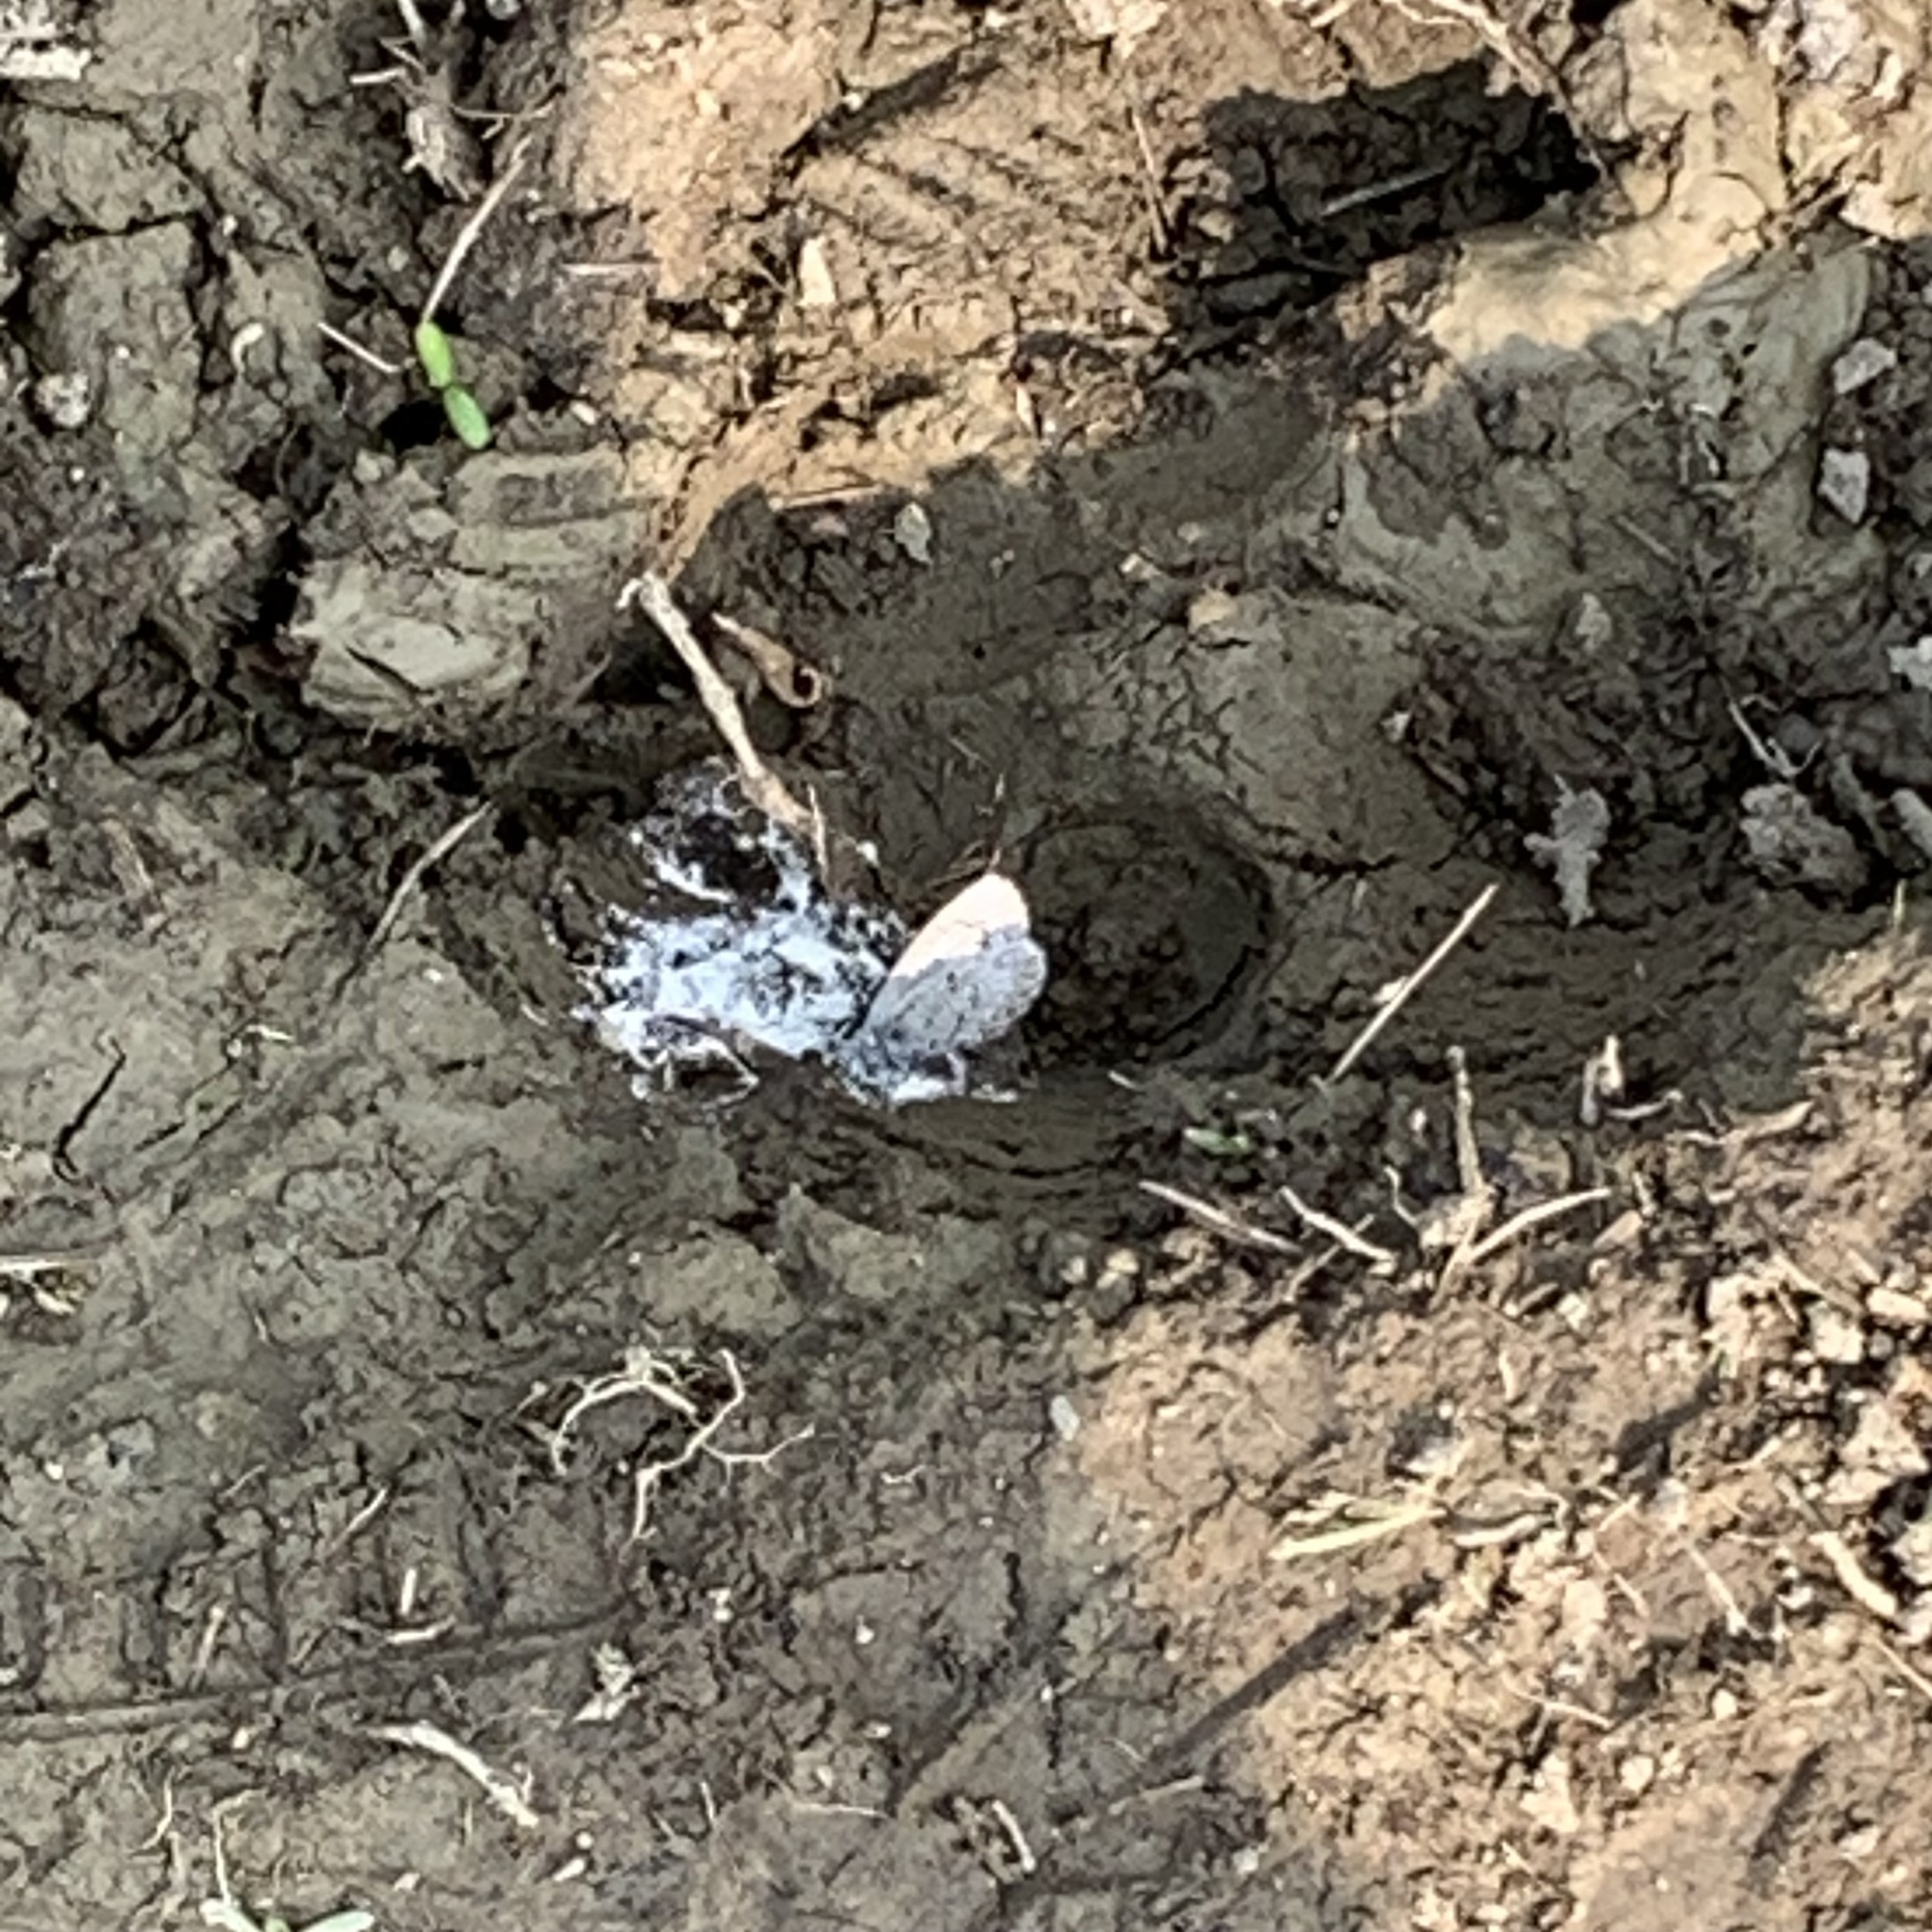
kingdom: Animalia
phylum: Arthropoda
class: Insecta
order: Lepidoptera
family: Lycaenidae
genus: Celastrina
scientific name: Celastrina lucia
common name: Lucia azure
